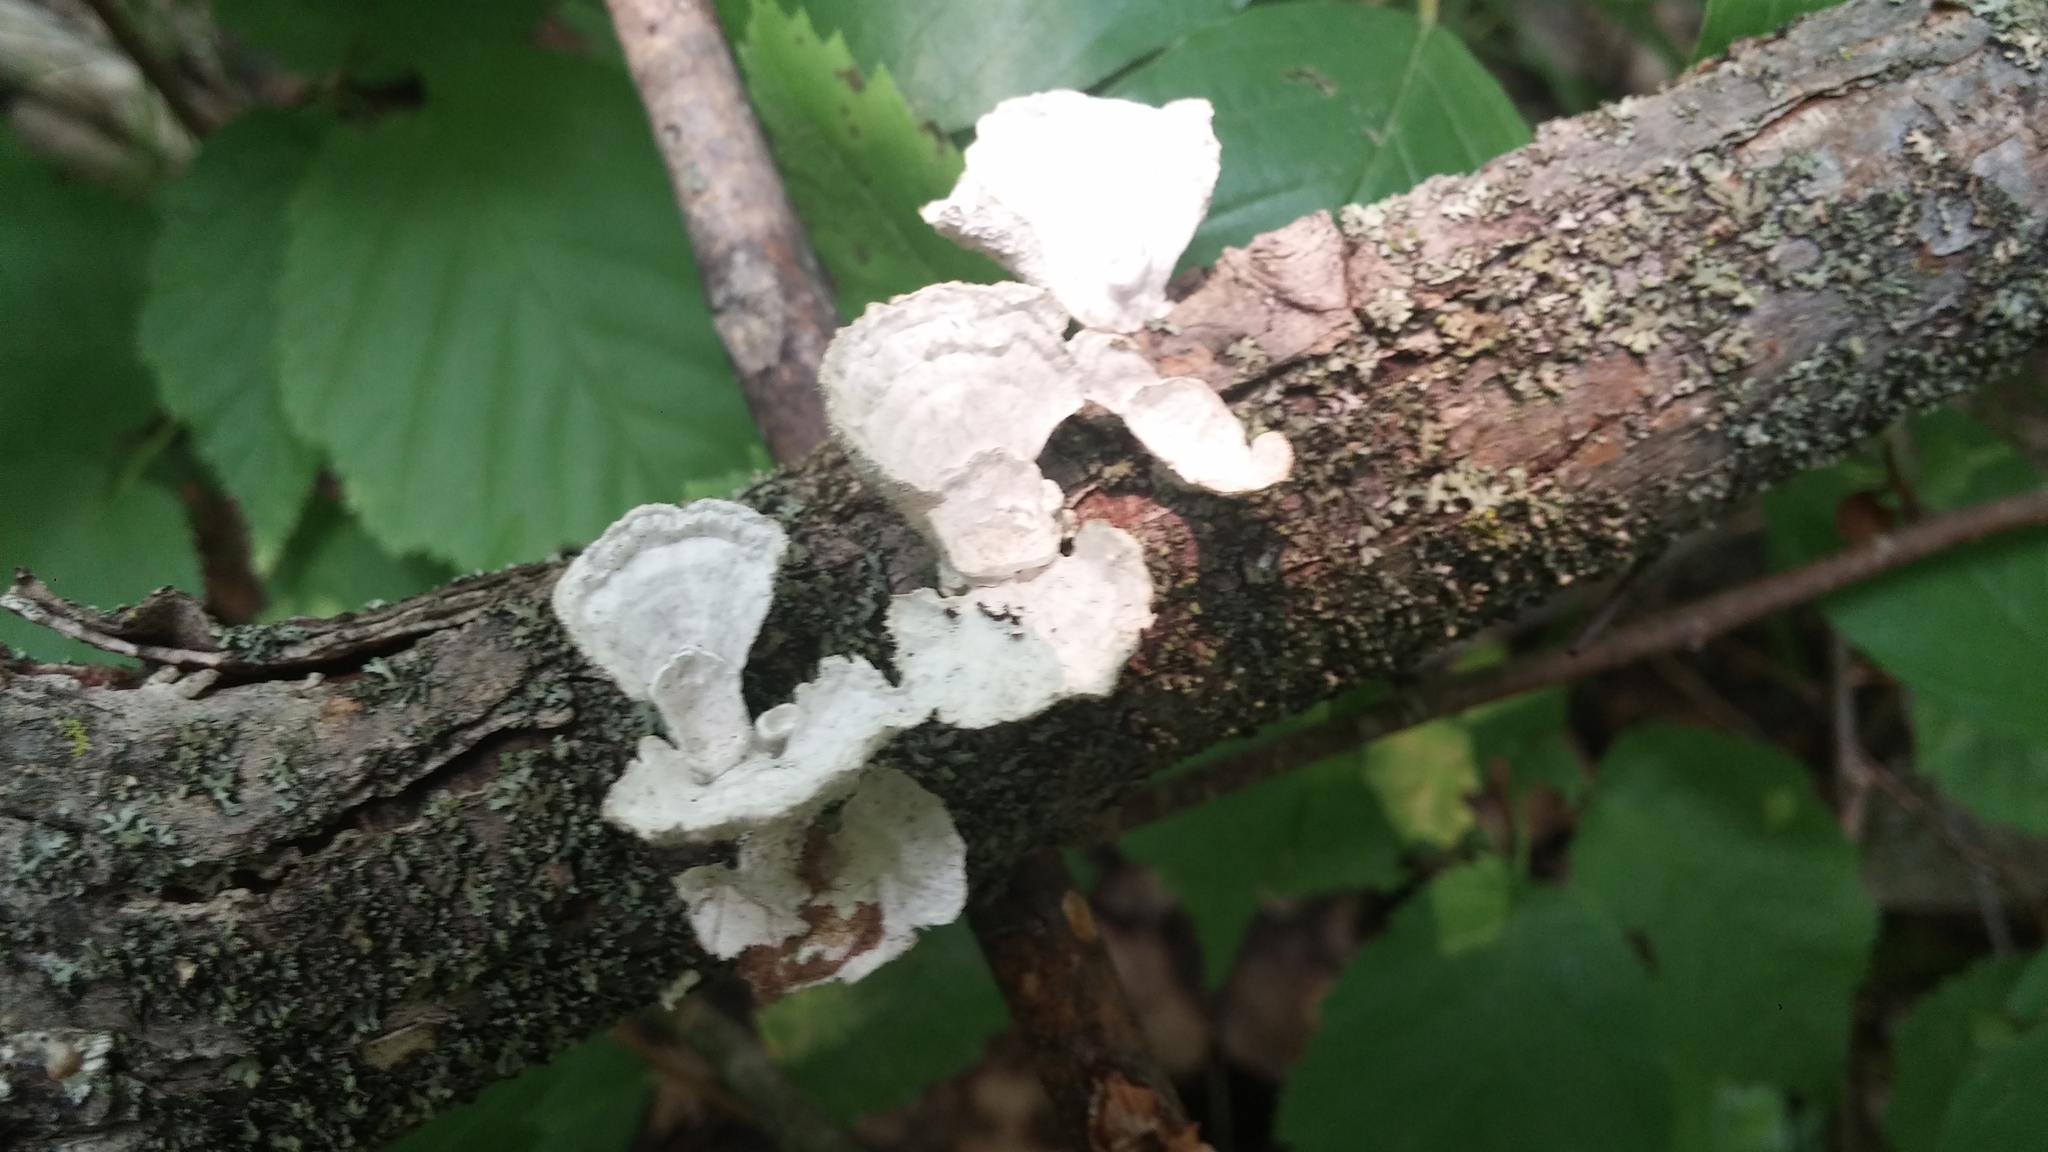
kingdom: Fungi
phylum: Basidiomycota
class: Agaricomycetes
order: Polyporales
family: Polyporaceae
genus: Poronidulus
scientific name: Poronidulus conchifer
